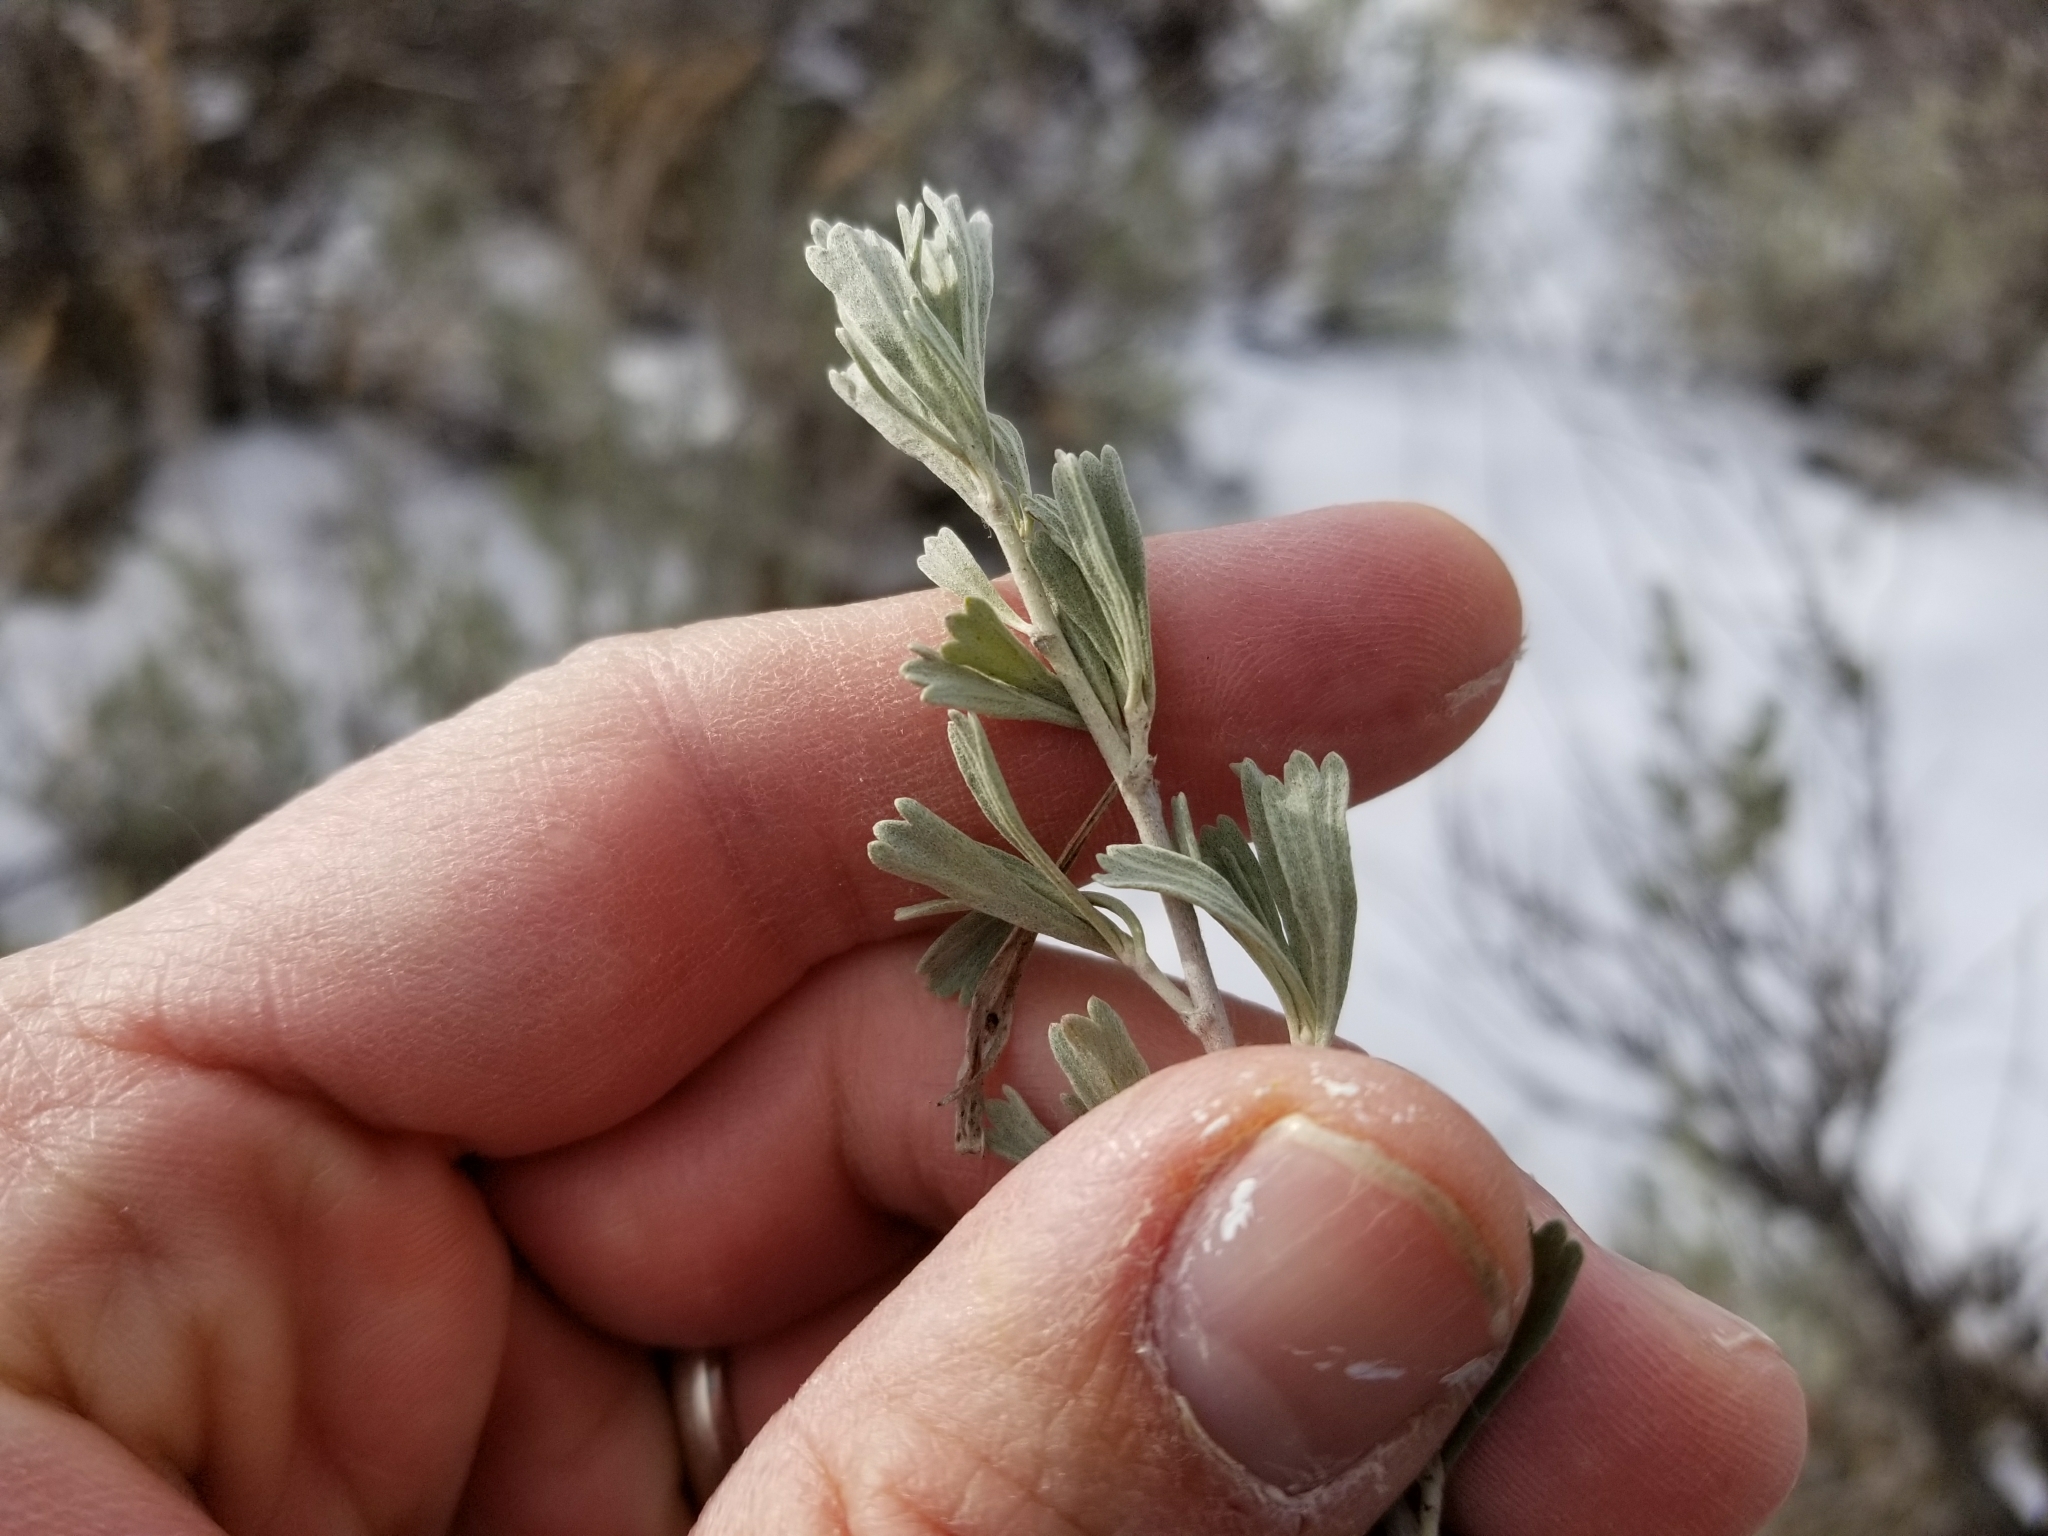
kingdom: Plantae
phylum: Tracheophyta
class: Magnoliopsida
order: Asterales
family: Asteraceae
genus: Artemisia
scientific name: Artemisia tridentata
